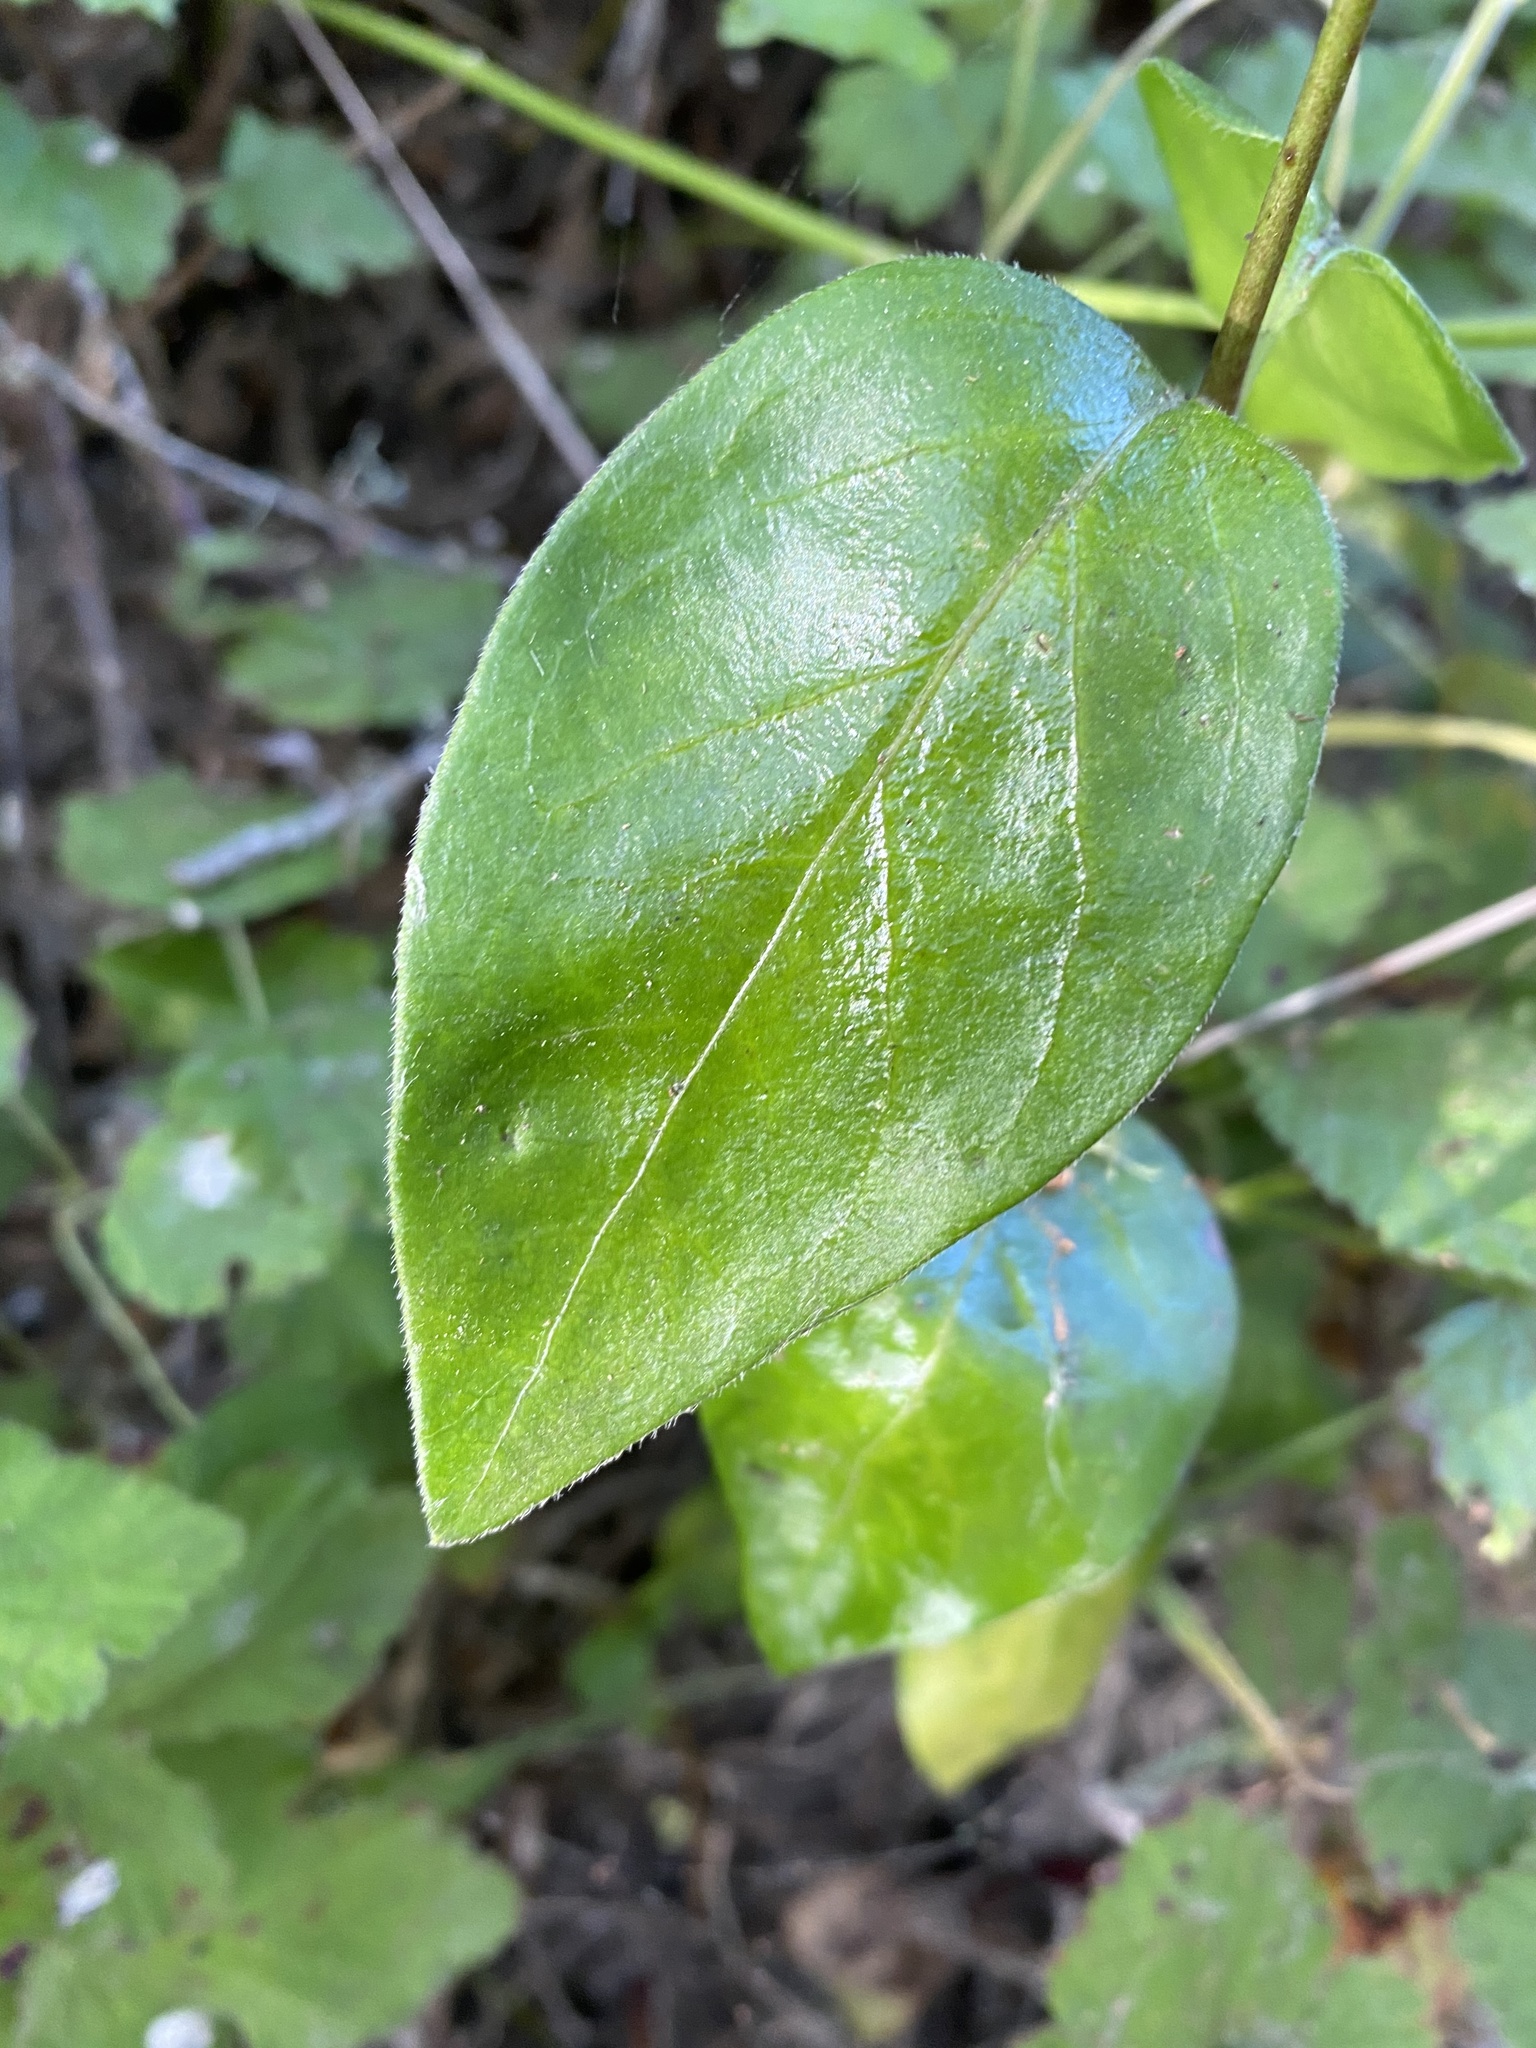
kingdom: Plantae
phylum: Tracheophyta
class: Magnoliopsida
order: Gentianales
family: Apocynaceae
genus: Vinca
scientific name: Vinca major
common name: Greater periwinkle
